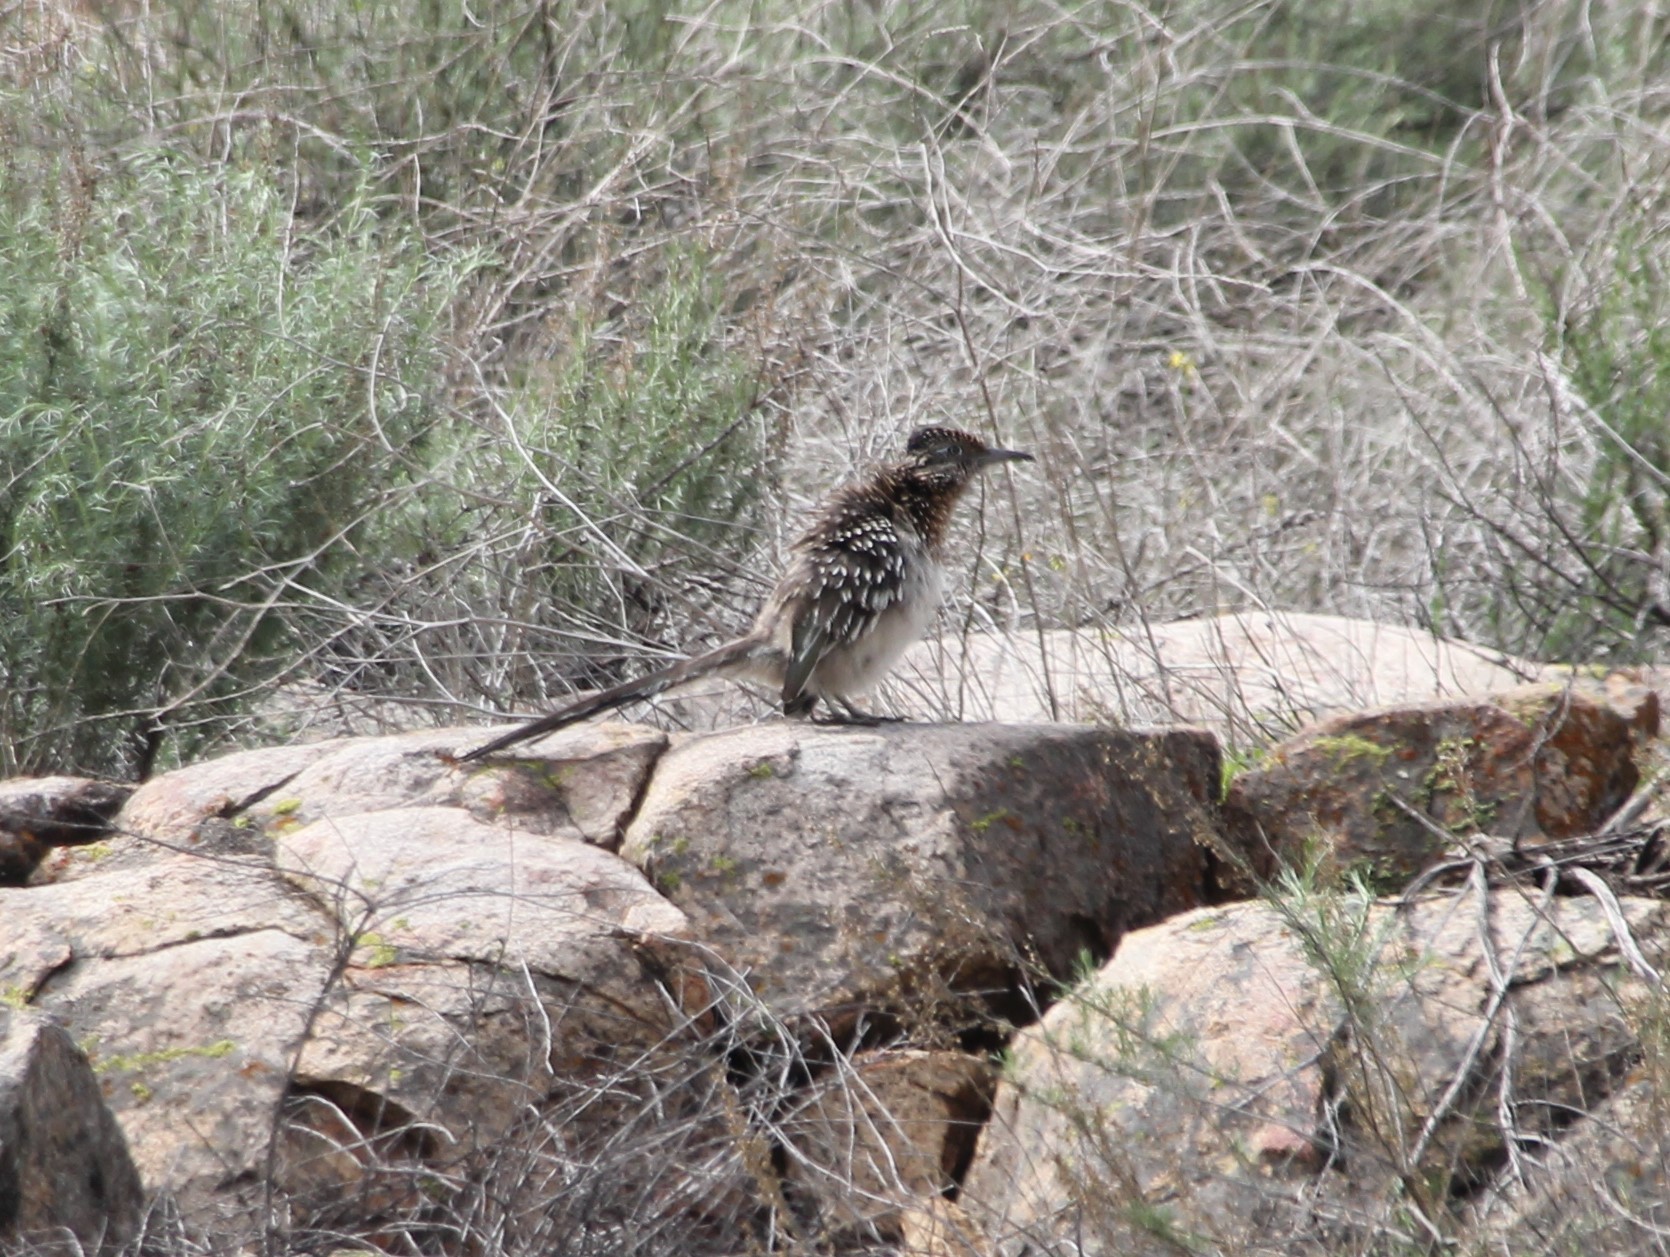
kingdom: Animalia
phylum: Chordata
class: Aves
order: Cuculiformes
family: Cuculidae
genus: Geococcyx
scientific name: Geococcyx californianus
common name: Greater roadrunner
